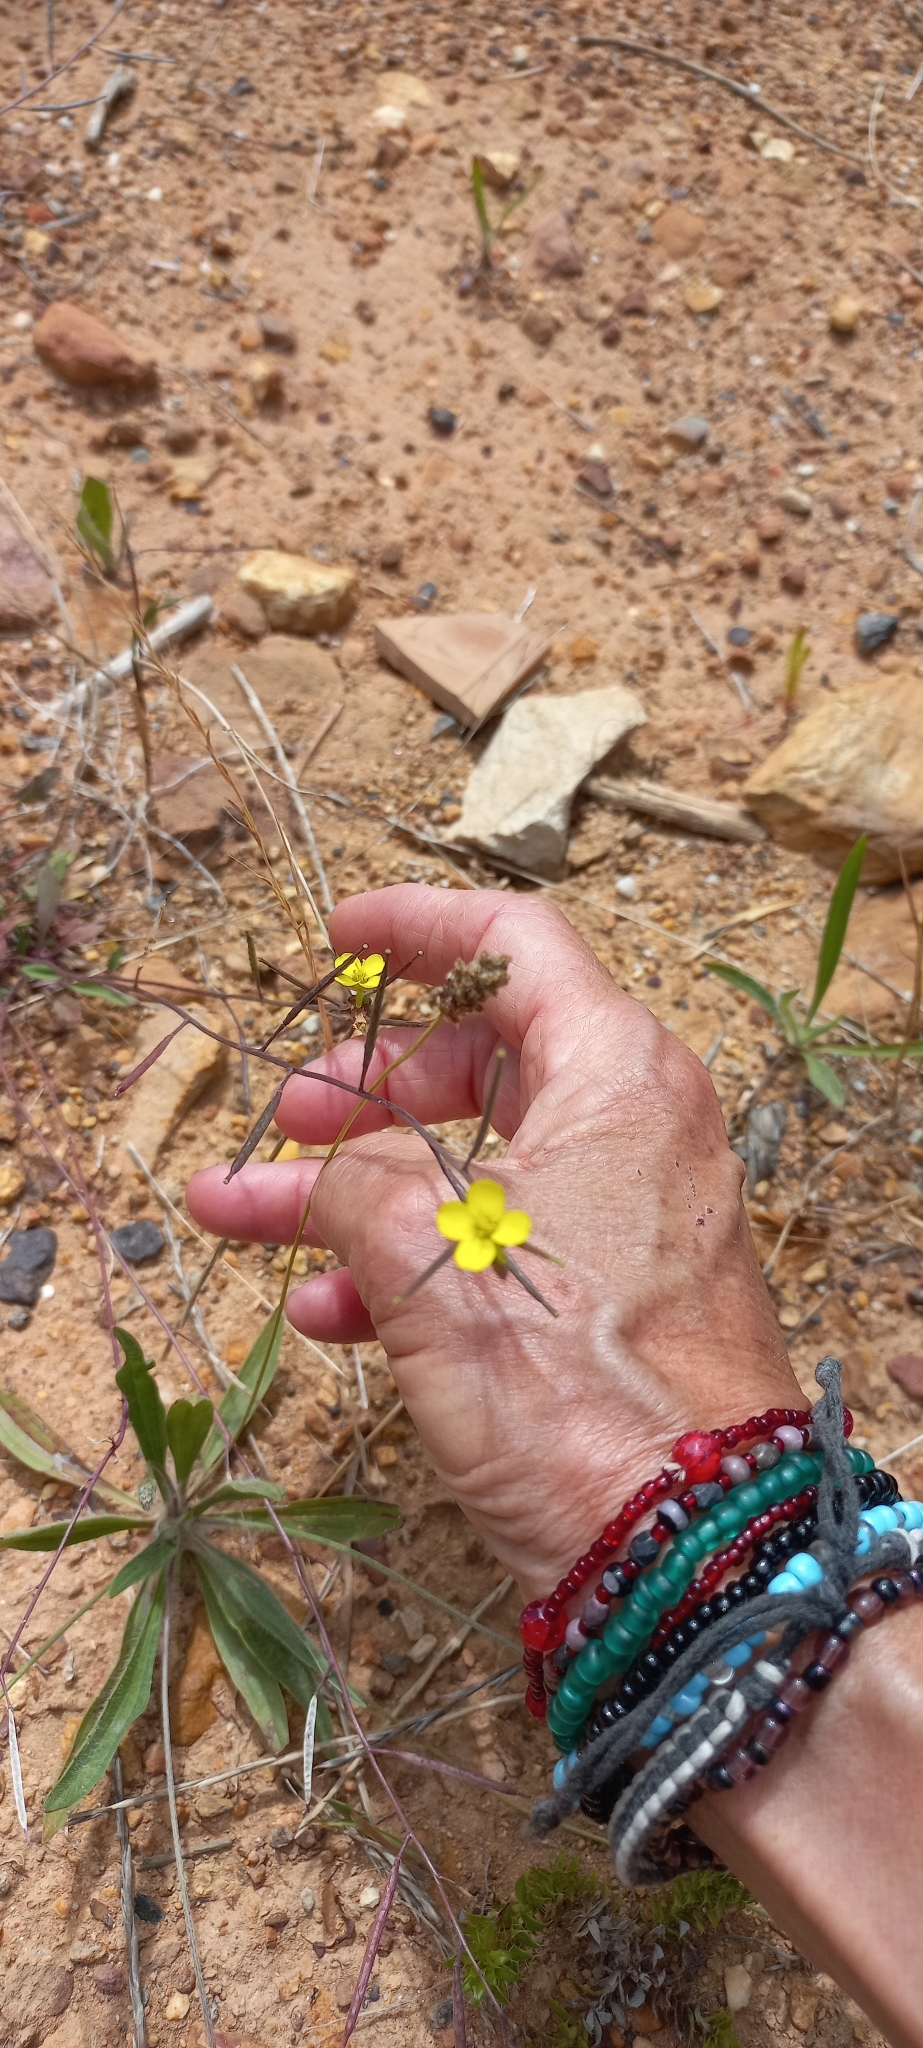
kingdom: Plantae
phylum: Tracheophyta
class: Magnoliopsida
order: Brassicales
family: Brassicaceae
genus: Diplotaxis
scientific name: Diplotaxis muralis
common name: Annual wall-rocket
